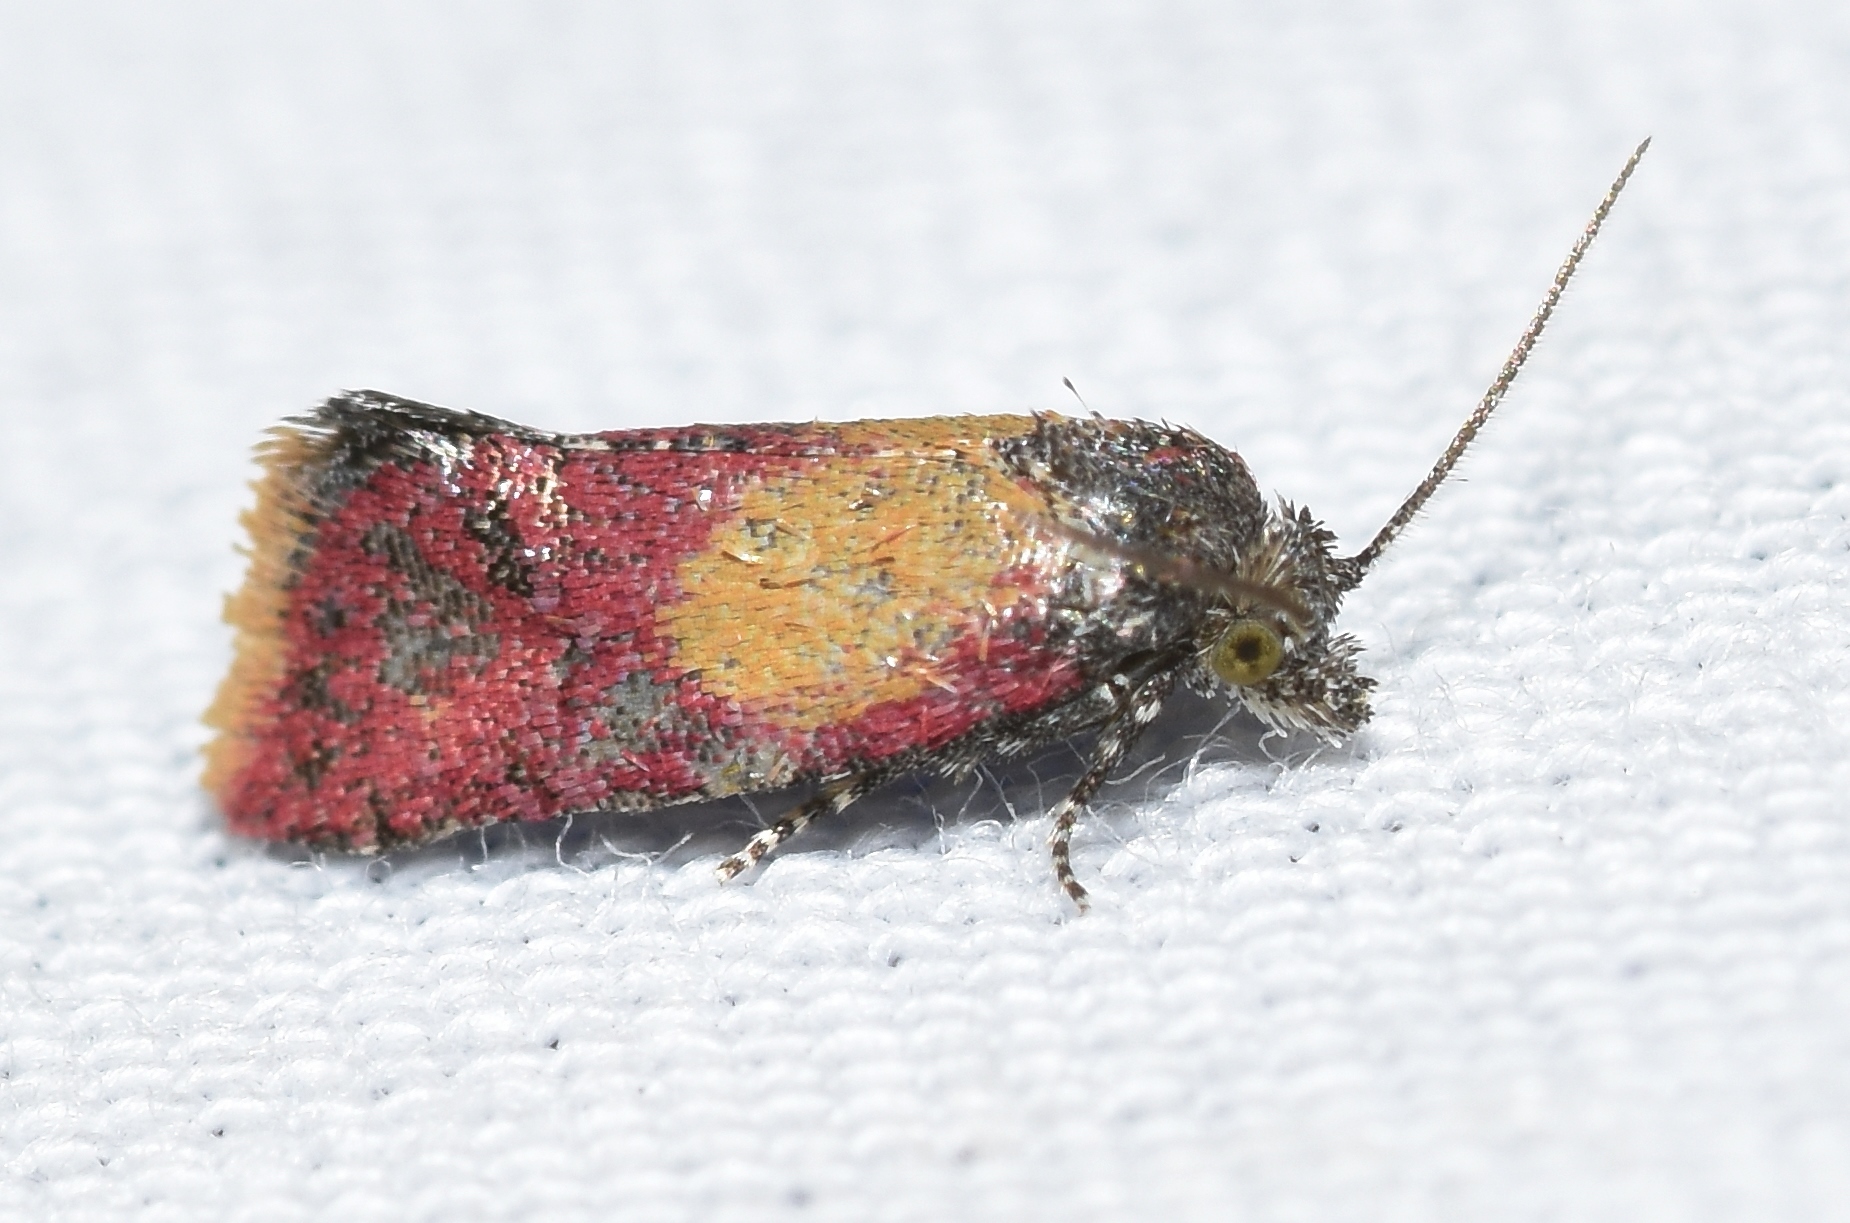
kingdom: Animalia
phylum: Arthropoda
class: Insecta
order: Lepidoptera
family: Tortricidae
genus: Conchylis
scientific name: Conchylis oenotherana
